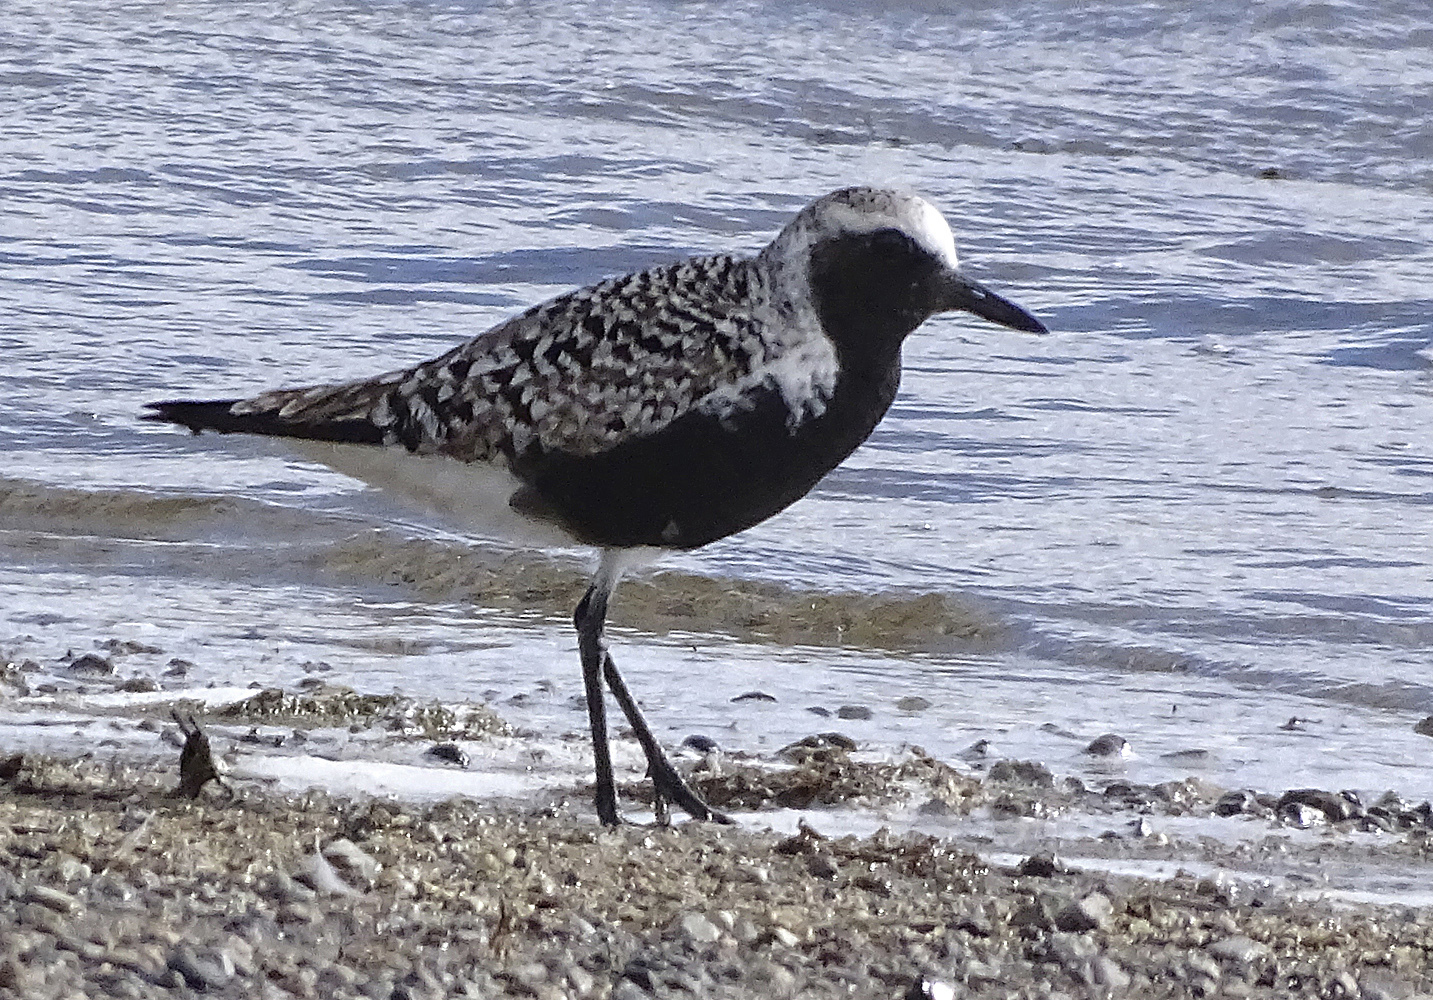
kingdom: Animalia
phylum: Chordata
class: Aves
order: Charadriiformes
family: Charadriidae
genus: Pluvialis
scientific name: Pluvialis squatarola
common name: Grey plover
